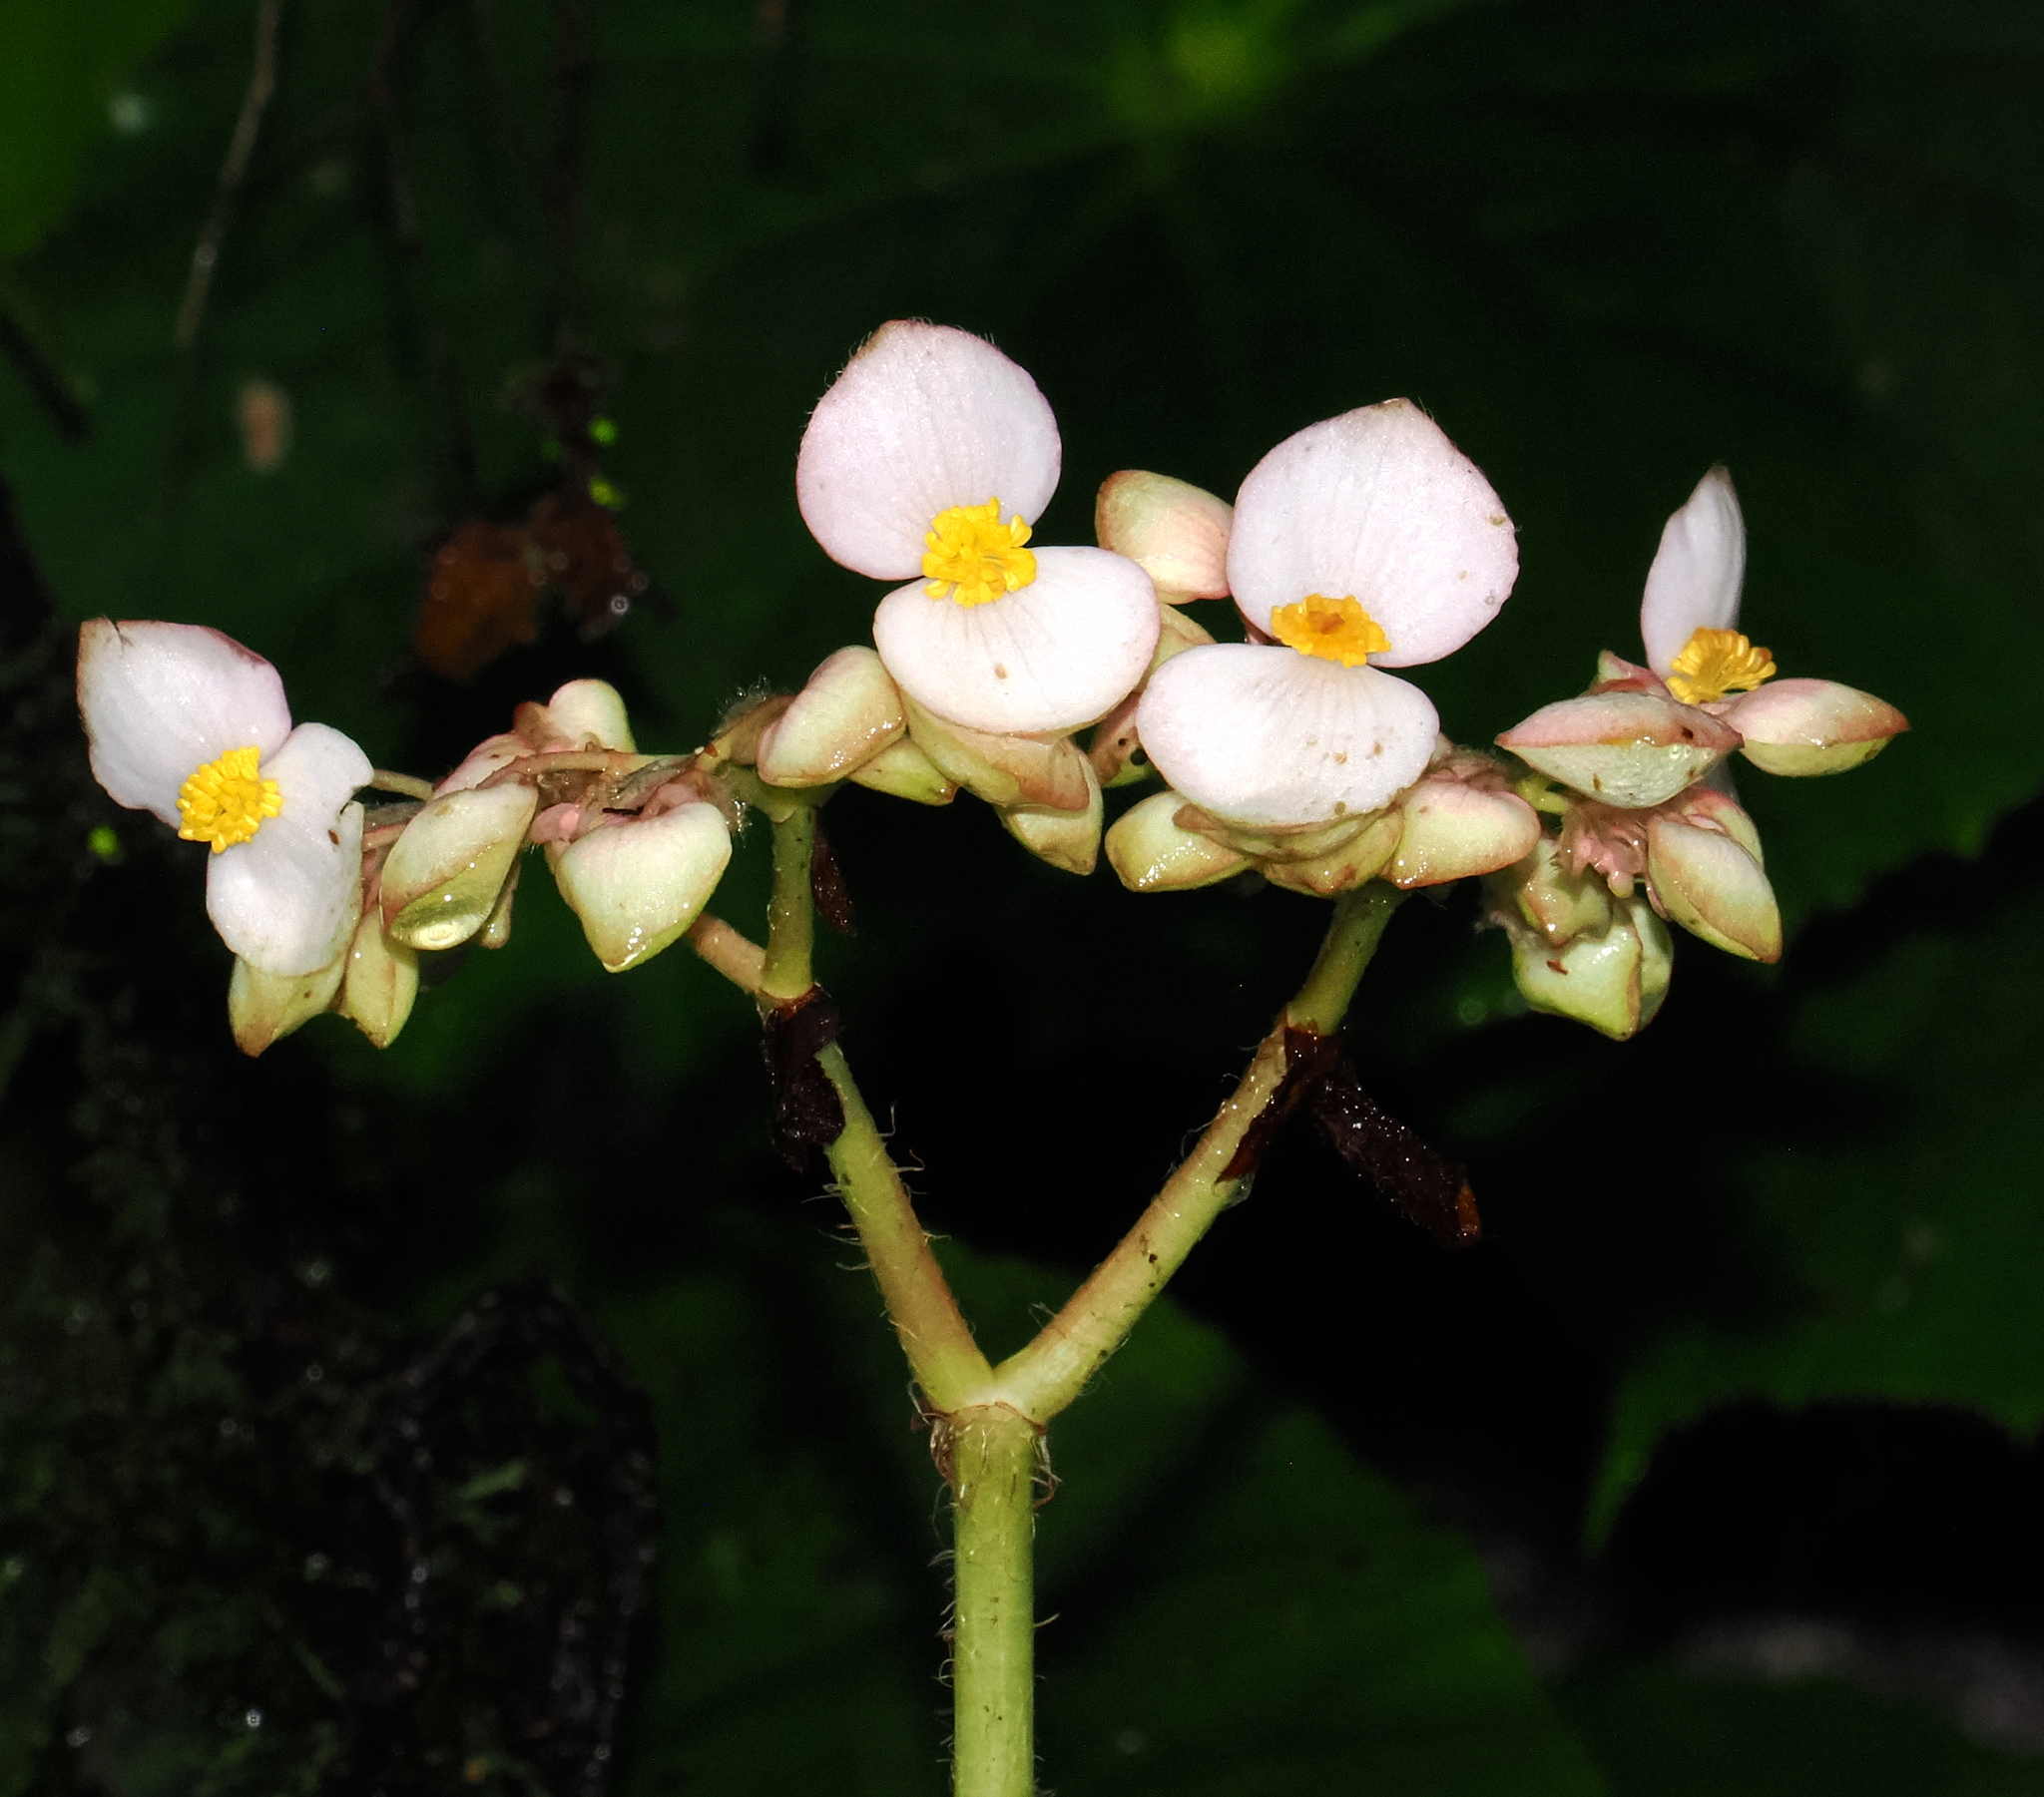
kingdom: Plantae
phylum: Tracheophyta
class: Magnoliopsida
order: Cucurbitales
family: Begoniaceae
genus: Begonia
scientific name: Begonia fischeri
